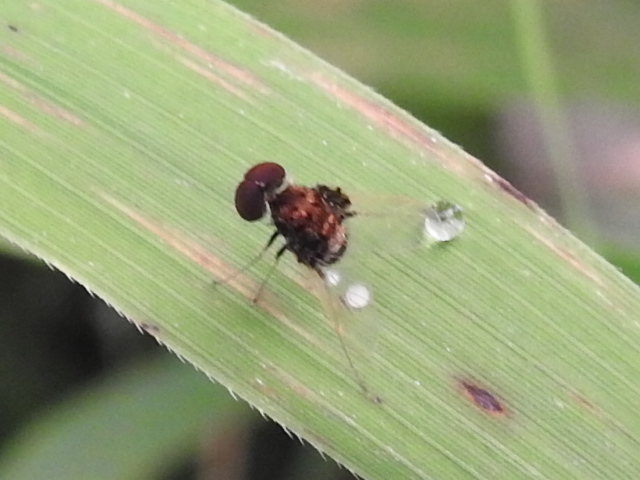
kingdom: Animalia
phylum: Arthropoda
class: Insecta
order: Diptera
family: Rhagionidae
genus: Chrysopilus
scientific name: Chrysopilus basilaris
